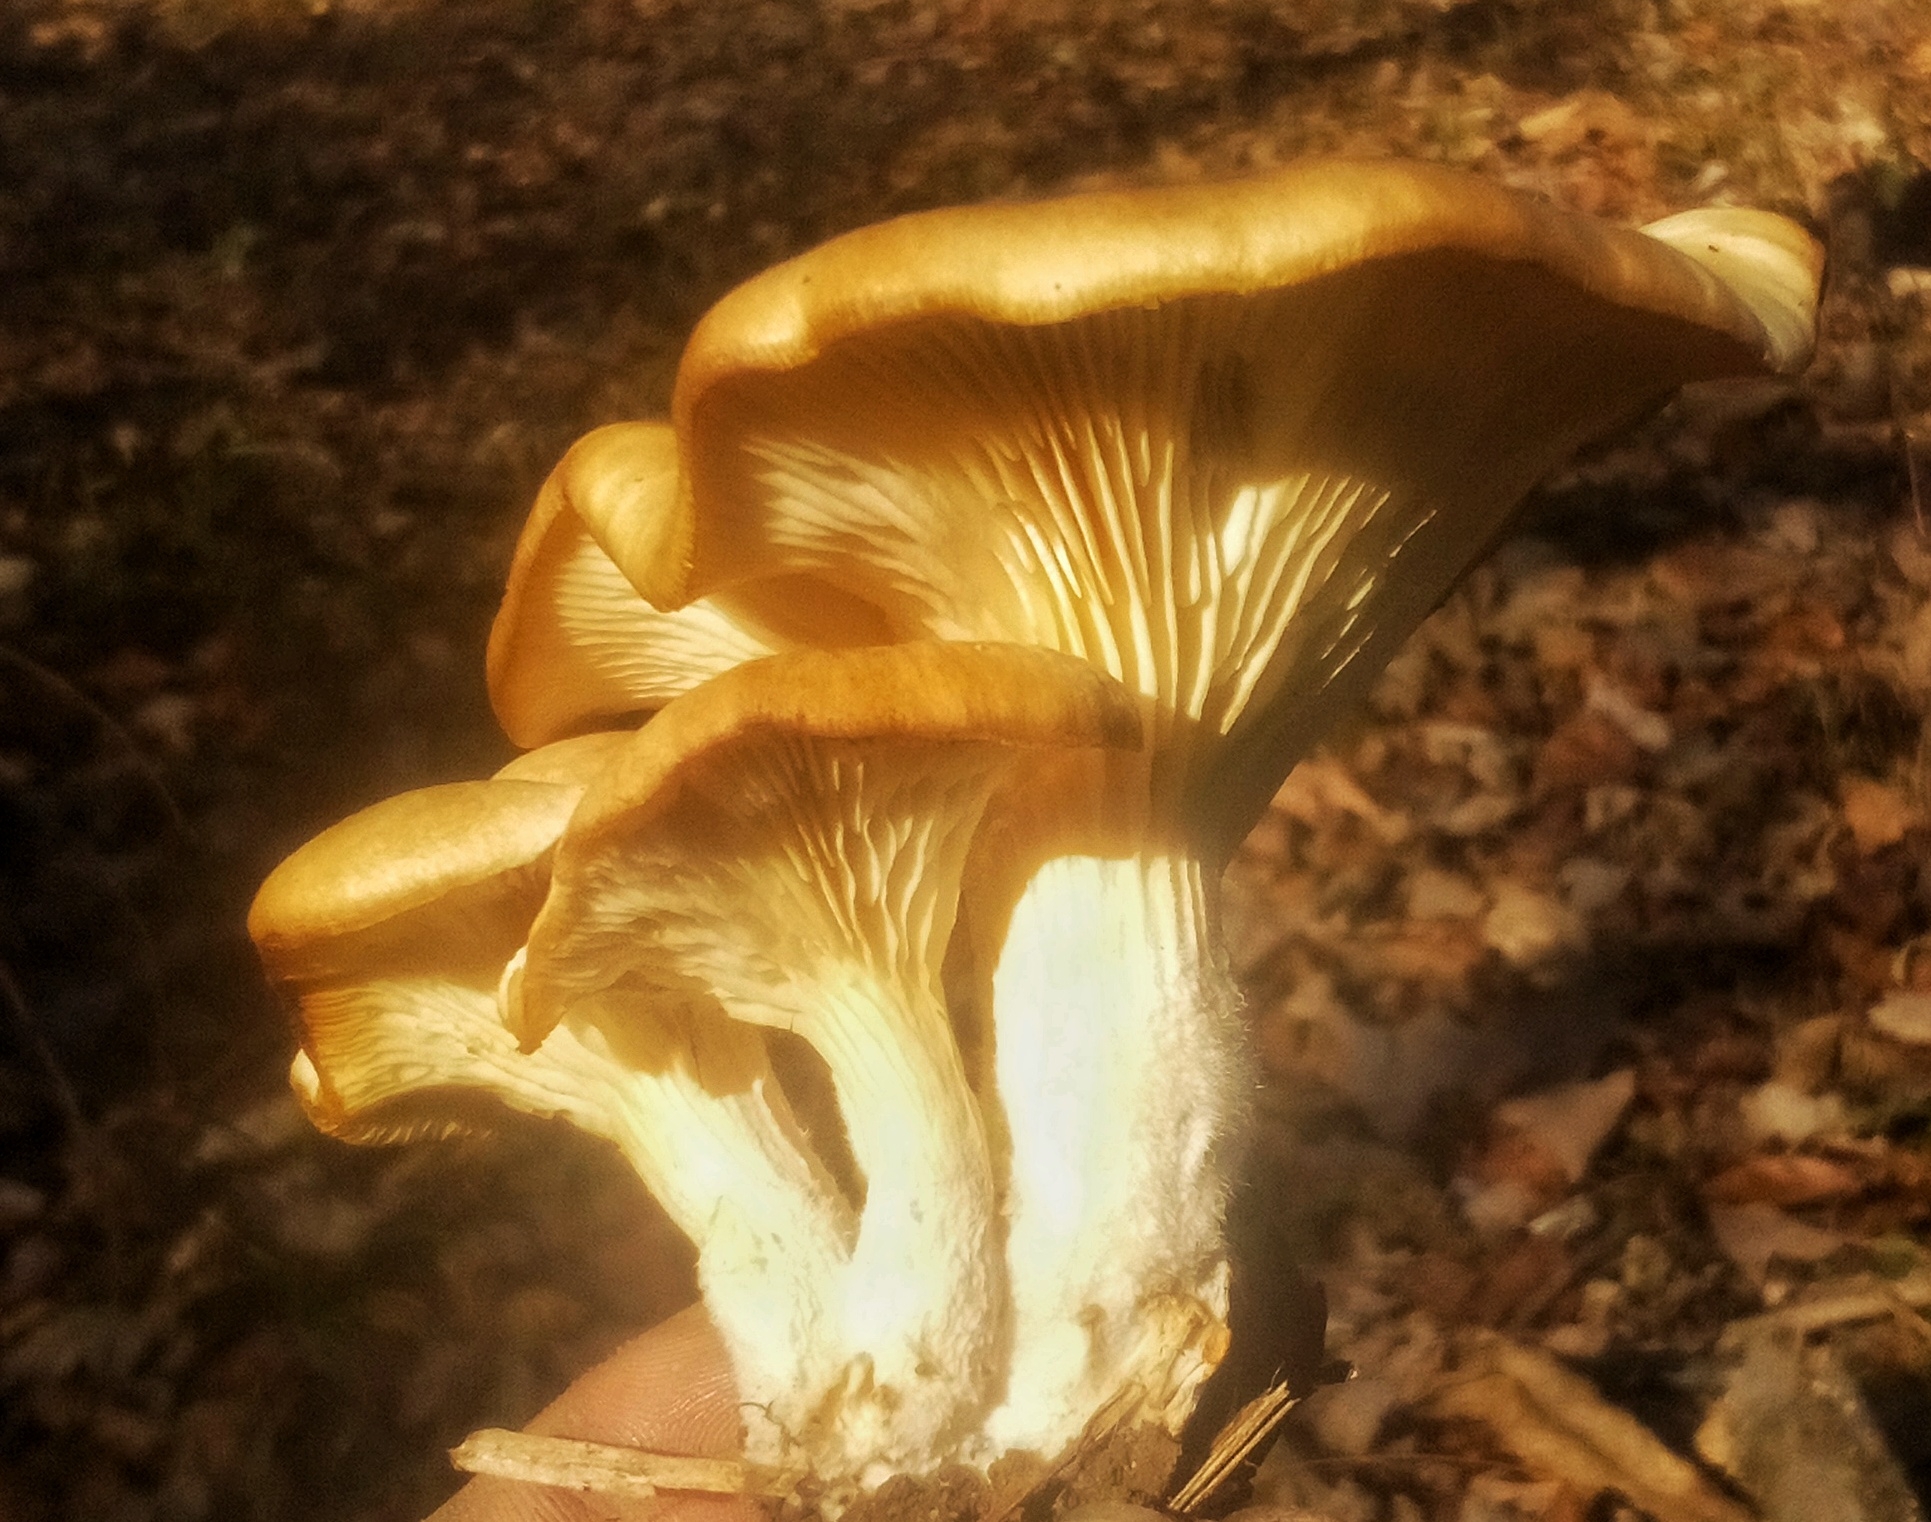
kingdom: Fungi
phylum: Basidiomycota
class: Agaricomycetes
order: Agaricales
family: Pleurotaceae
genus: Pleurotus
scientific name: Pleurotus ostreatus
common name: Oyster mushroom
